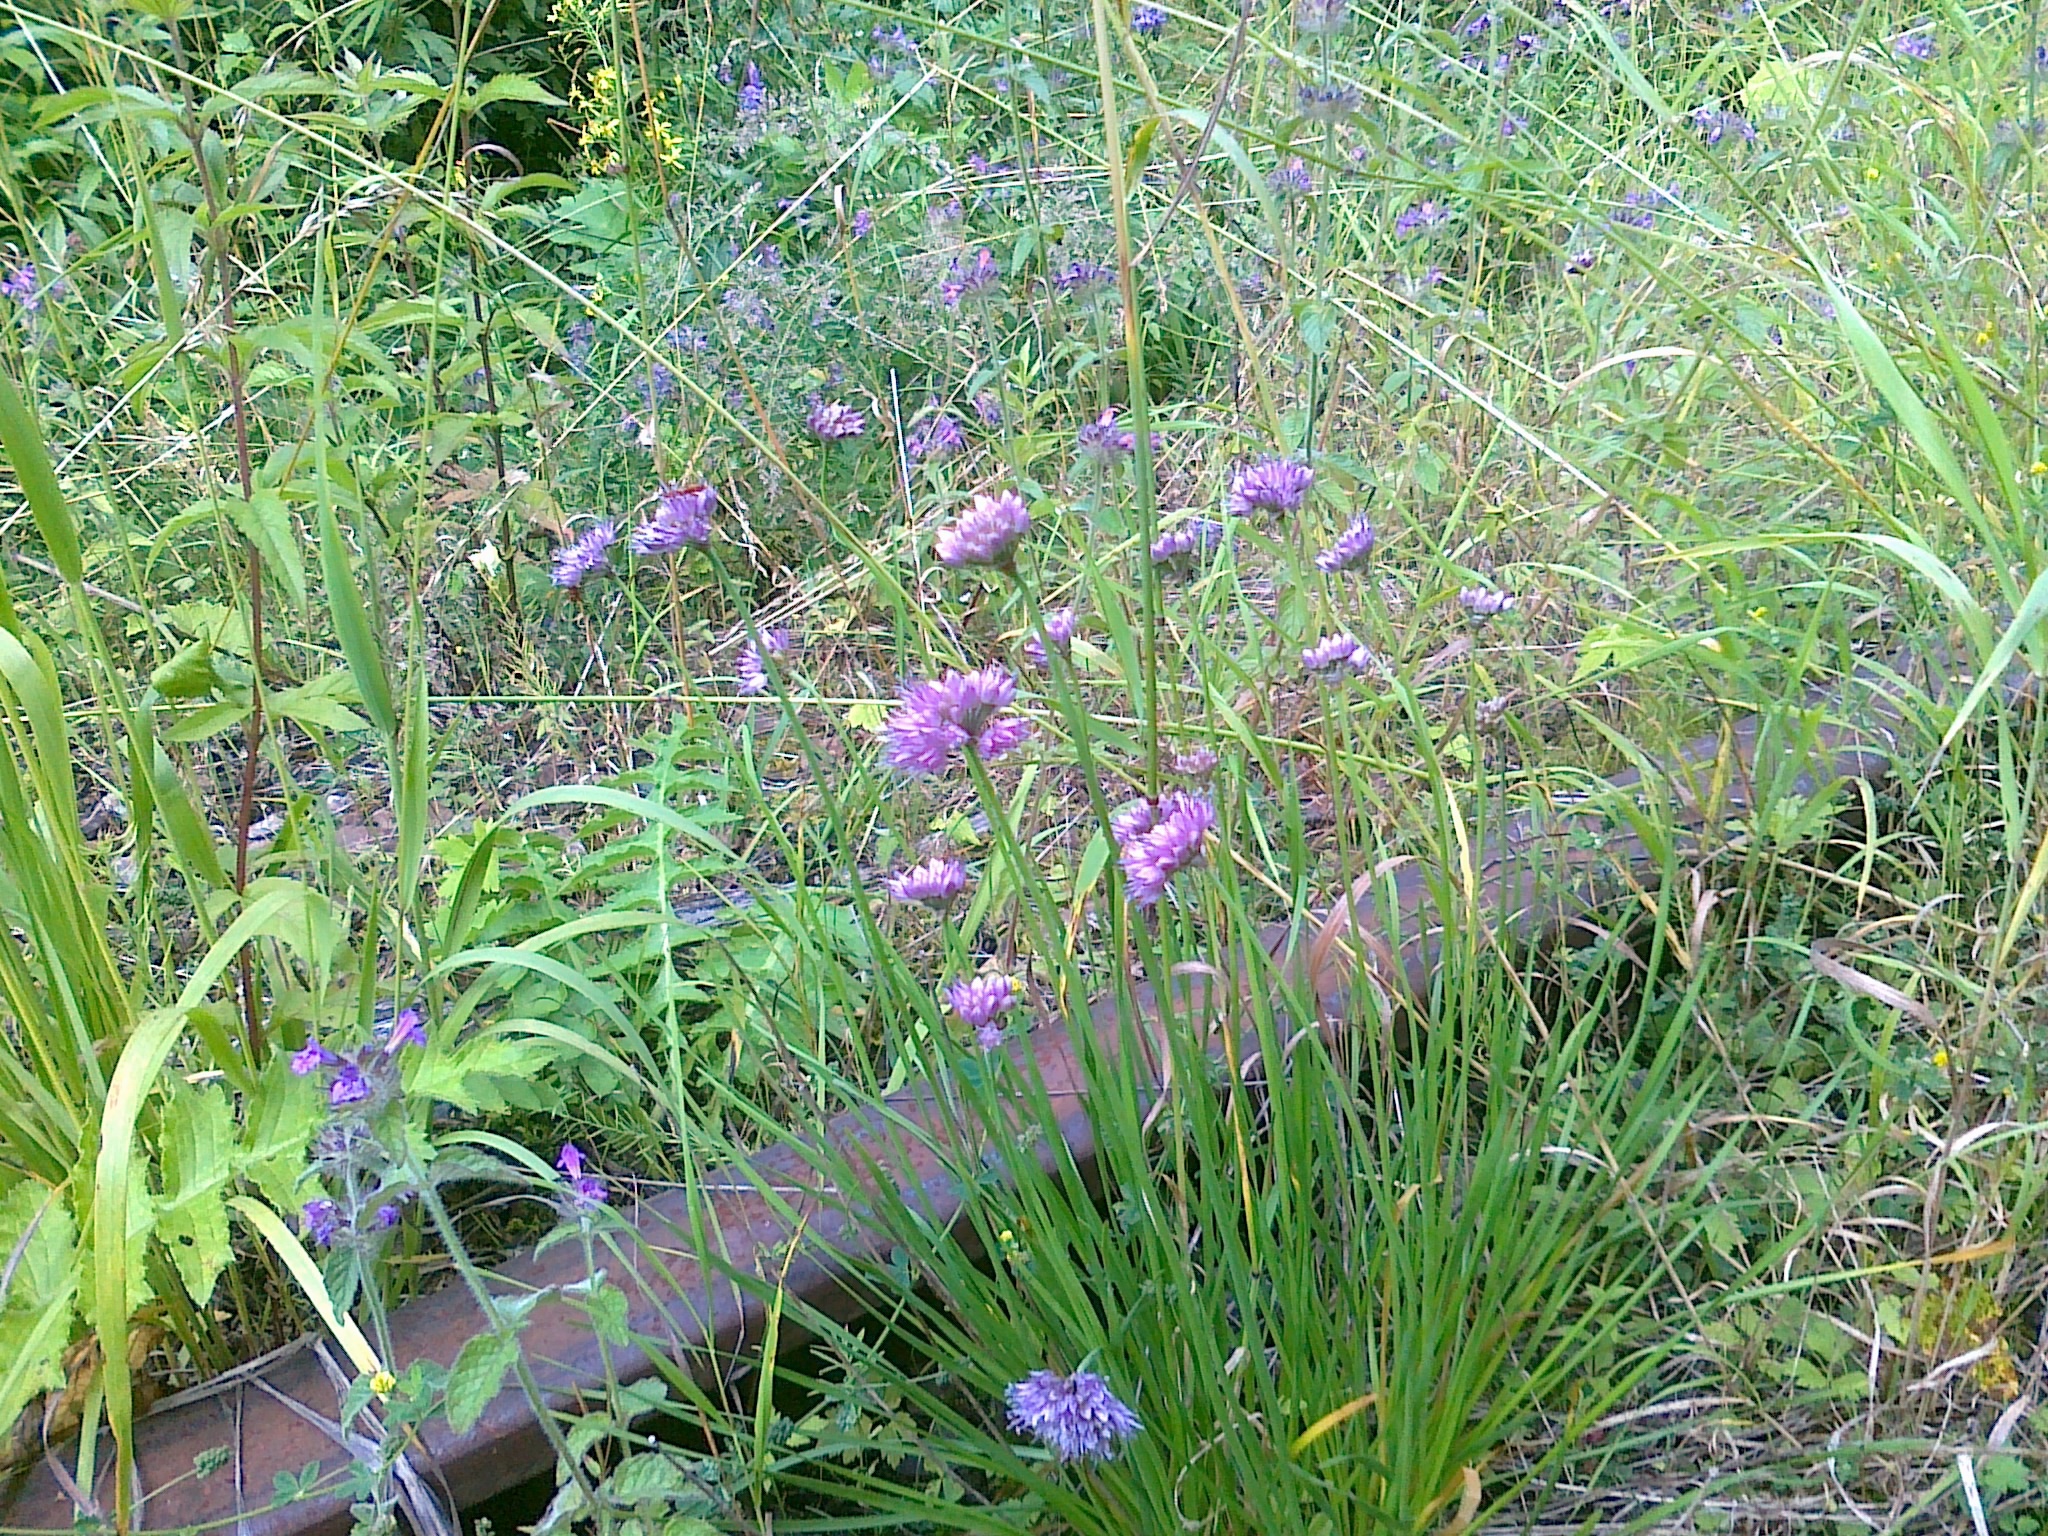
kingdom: Plantae
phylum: Tracheophyta
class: Liliopsida
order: Asparagales
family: Amaryllidaceae
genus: Allium
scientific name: Allium lusitanicum
